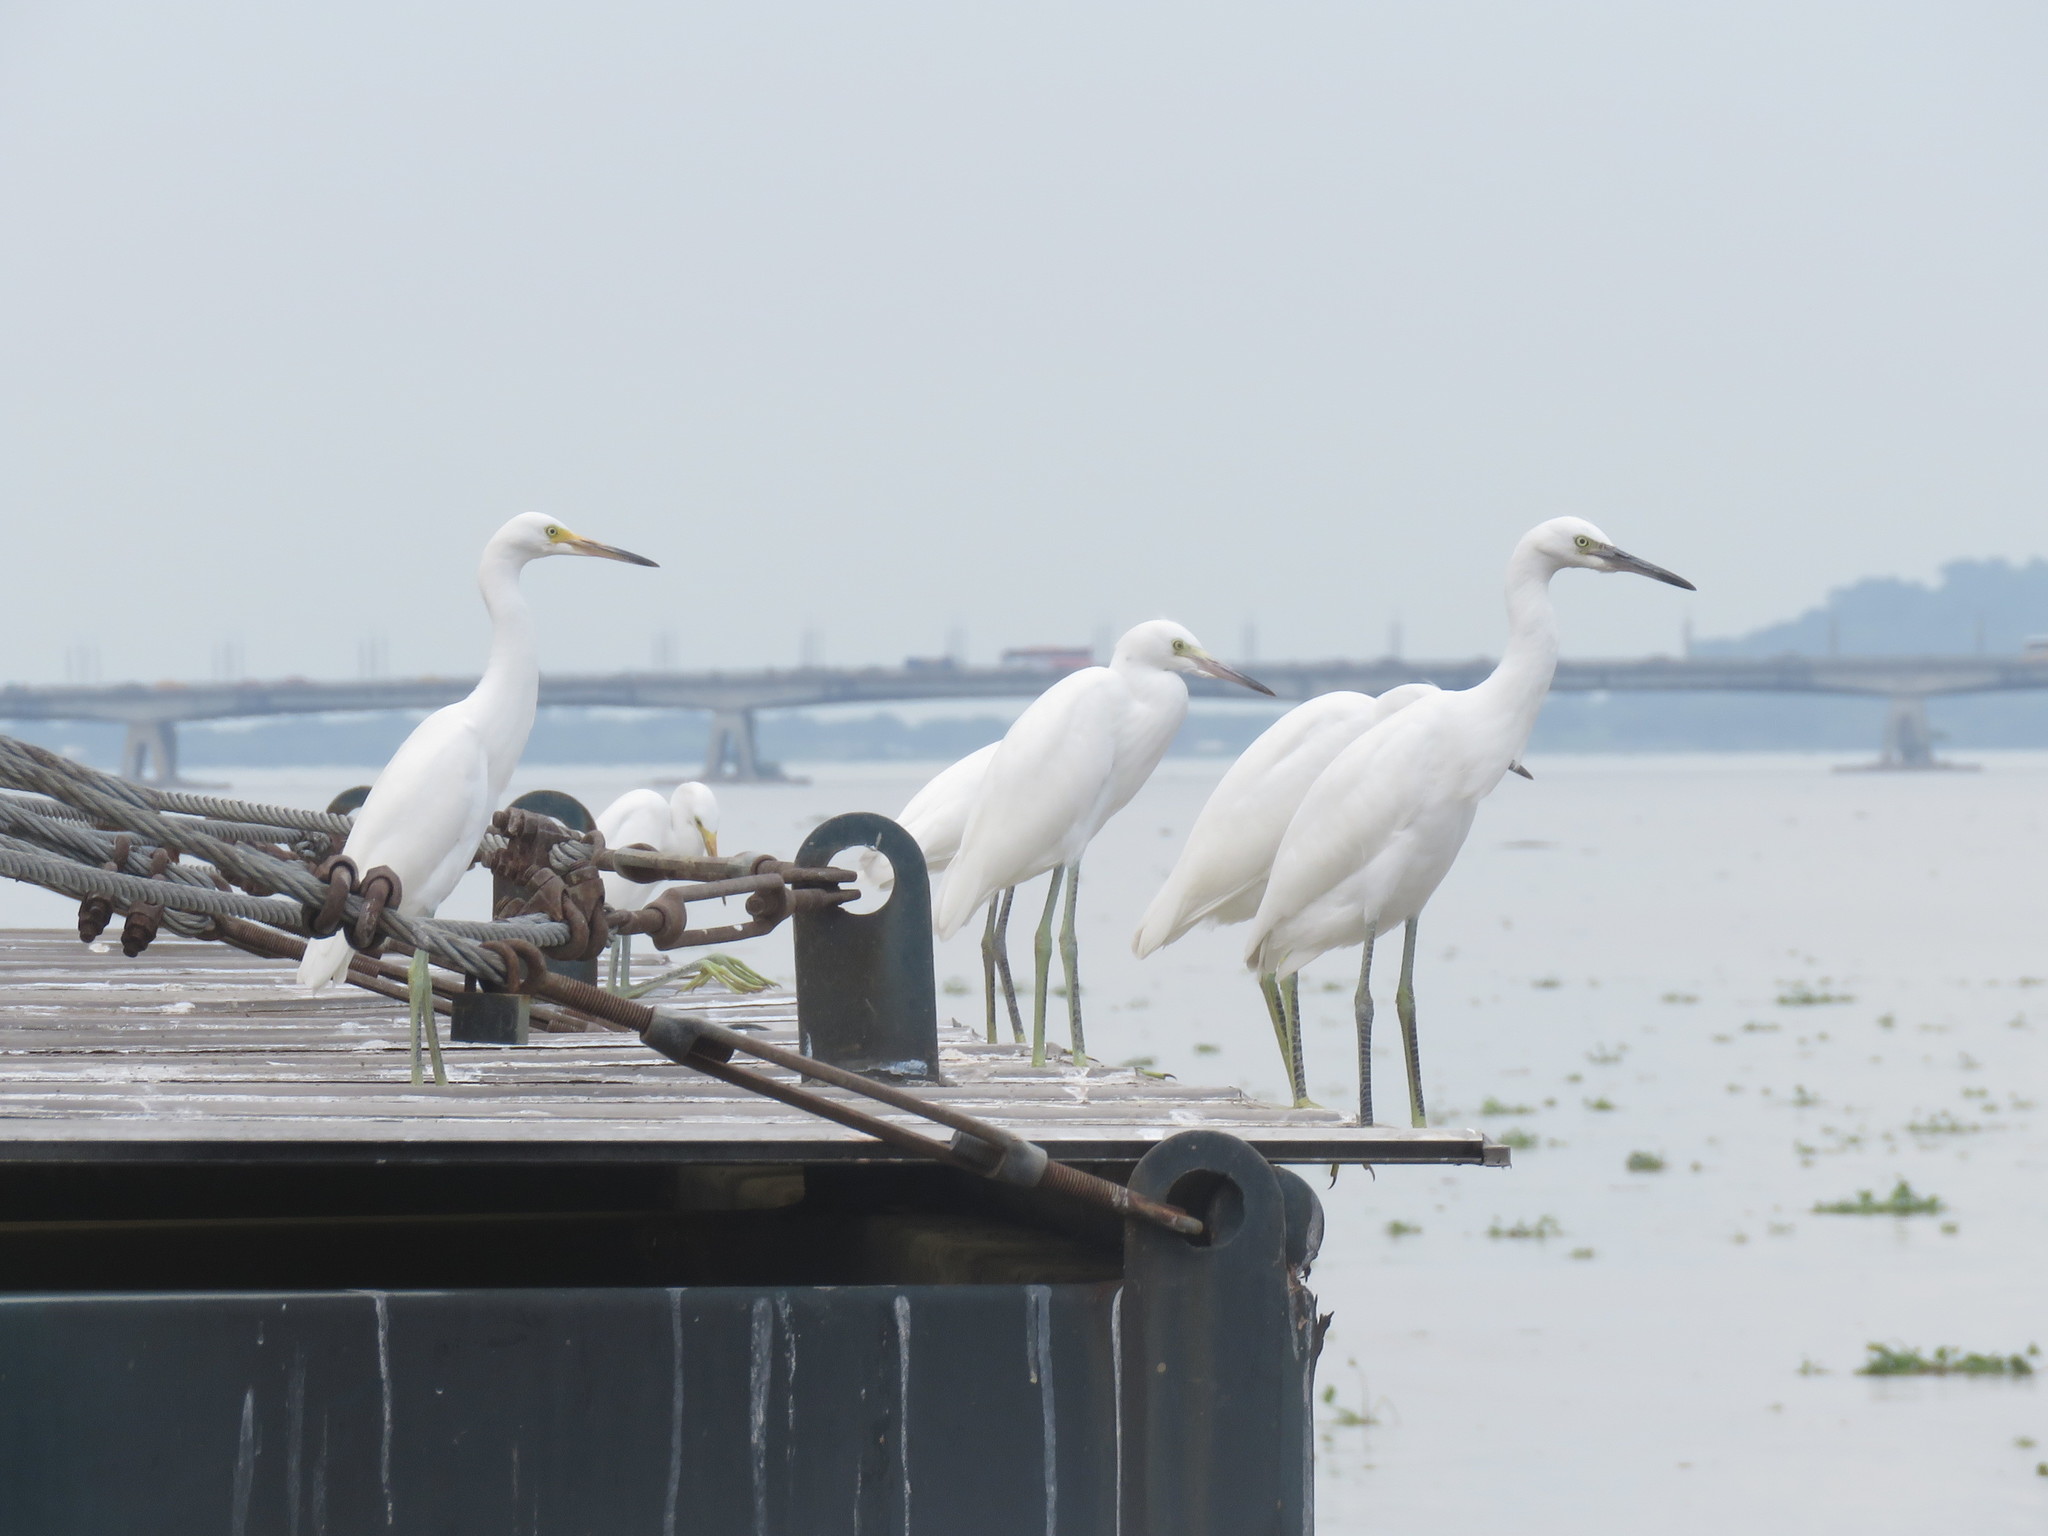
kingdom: Animalia
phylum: Chordata
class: Aves
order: Pelecaniformes
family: Ardeidae
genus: Egretta
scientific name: Egretta thula
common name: Snowy egret
